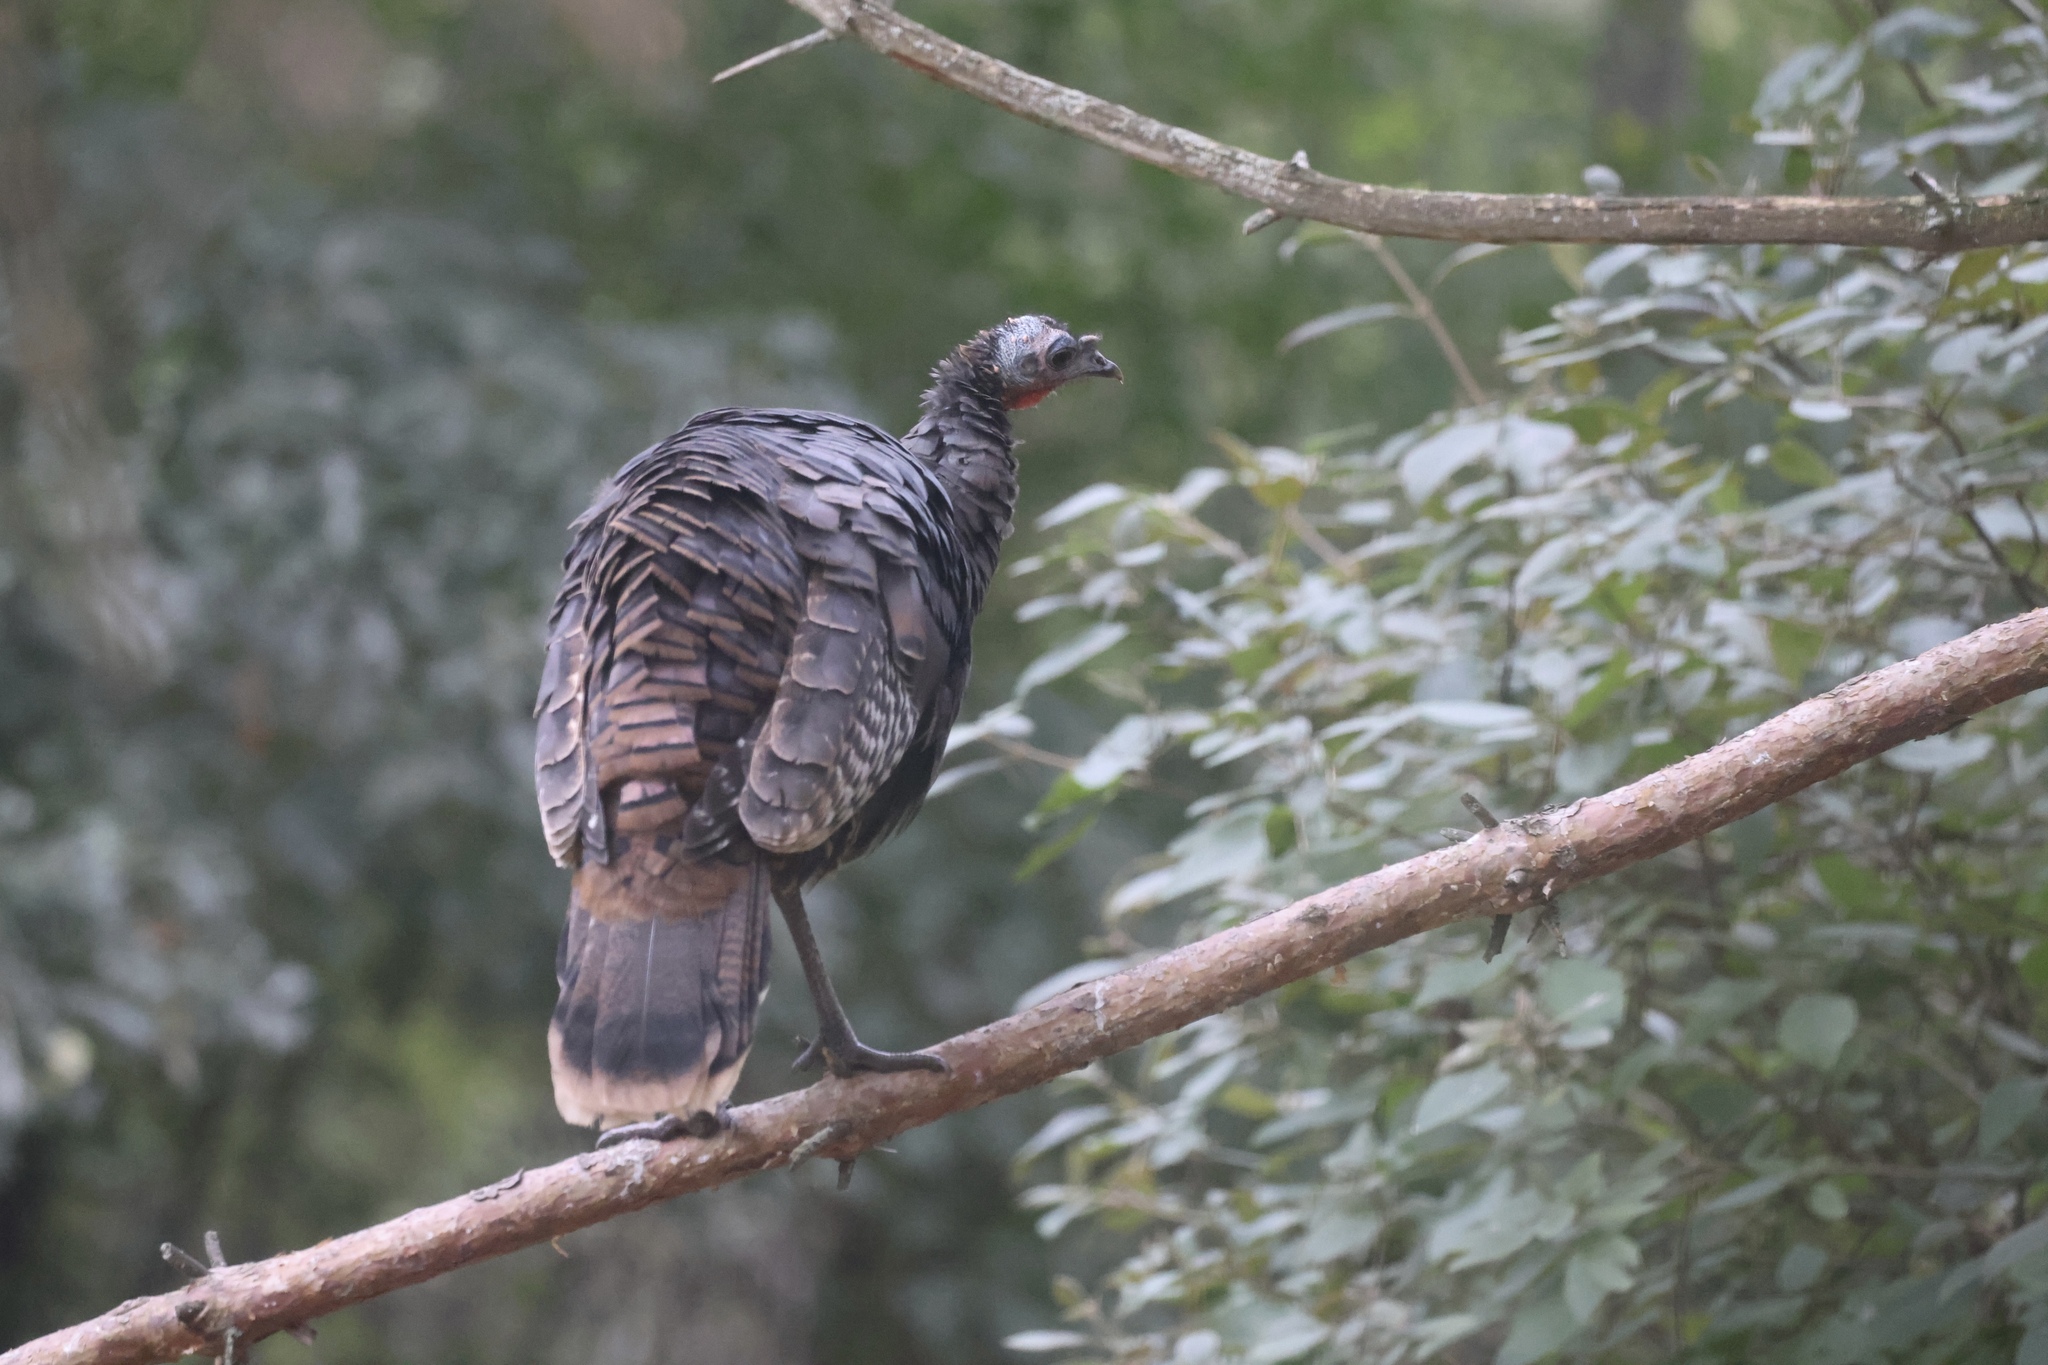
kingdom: Animalia
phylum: Chordata
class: Aves
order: Galliformes
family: Phasianidae
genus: Meleagris
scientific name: Meleagris gallopavo
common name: Wild turkey
